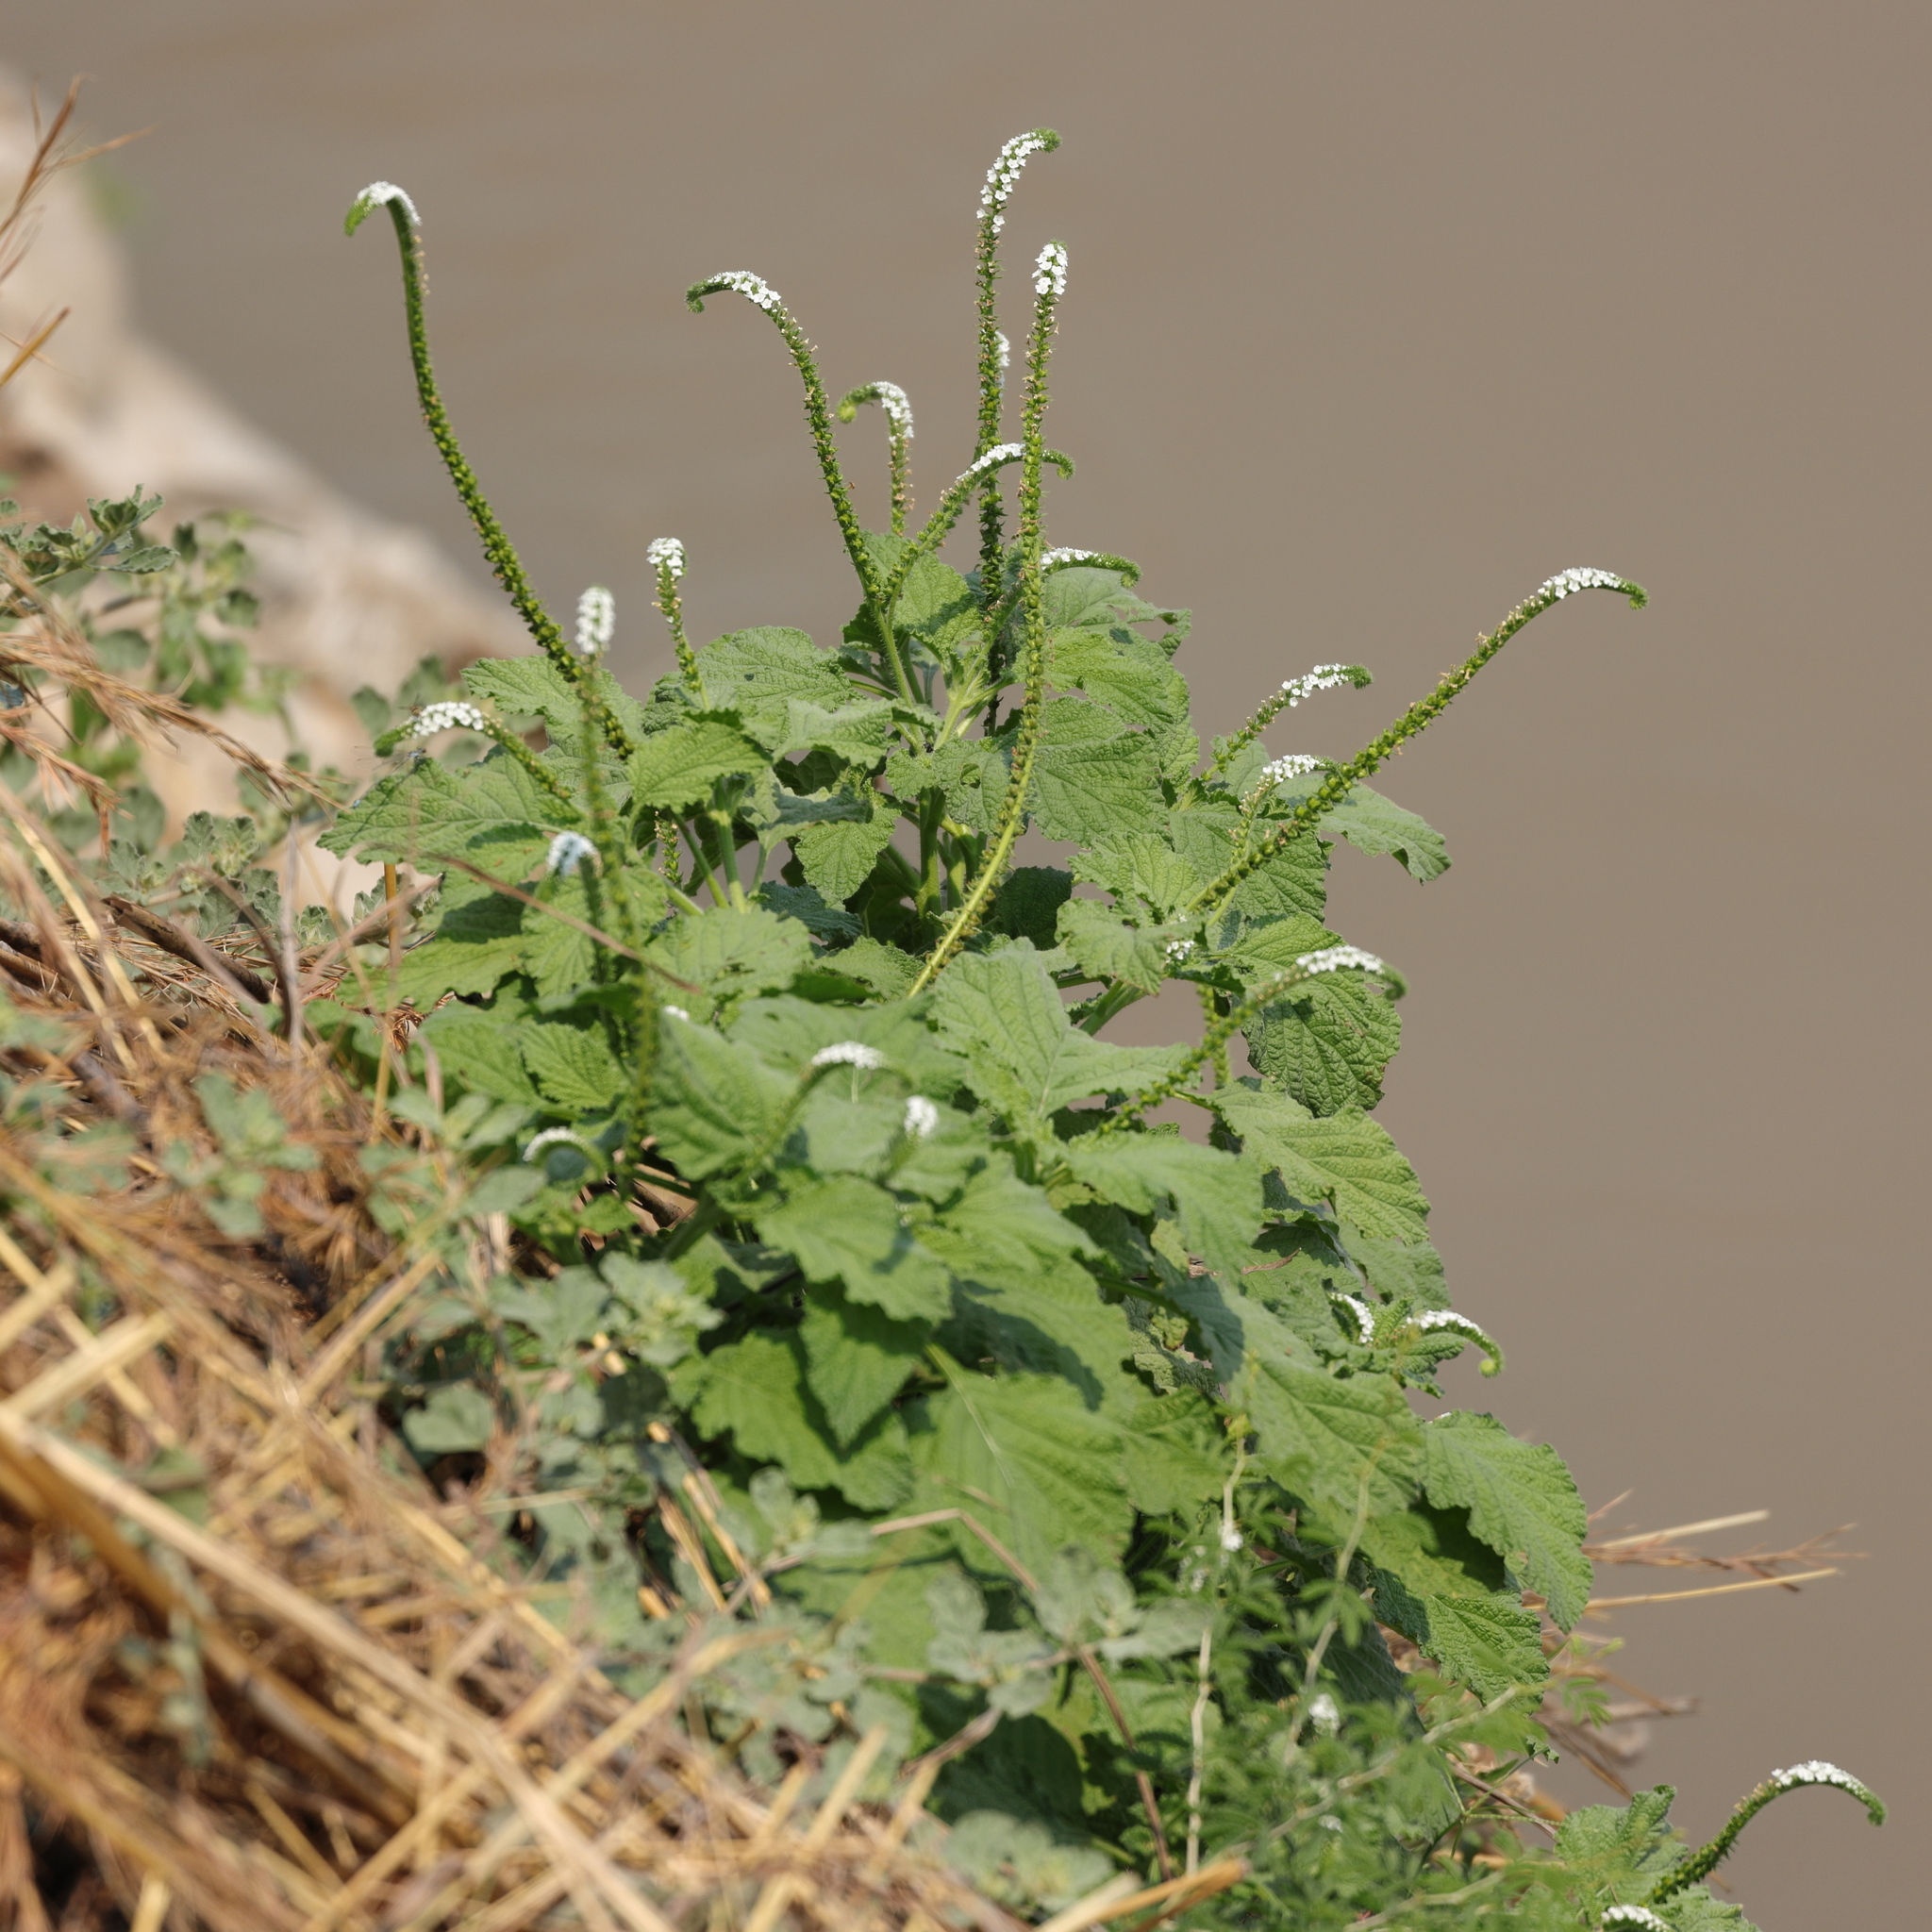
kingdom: Plantae
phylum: Tracheophyta
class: Magnoliopsida
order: Boraginales
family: Heliotropiaceae
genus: Heliotropium
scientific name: Heliotropium indicum
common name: Indian heliotrope
